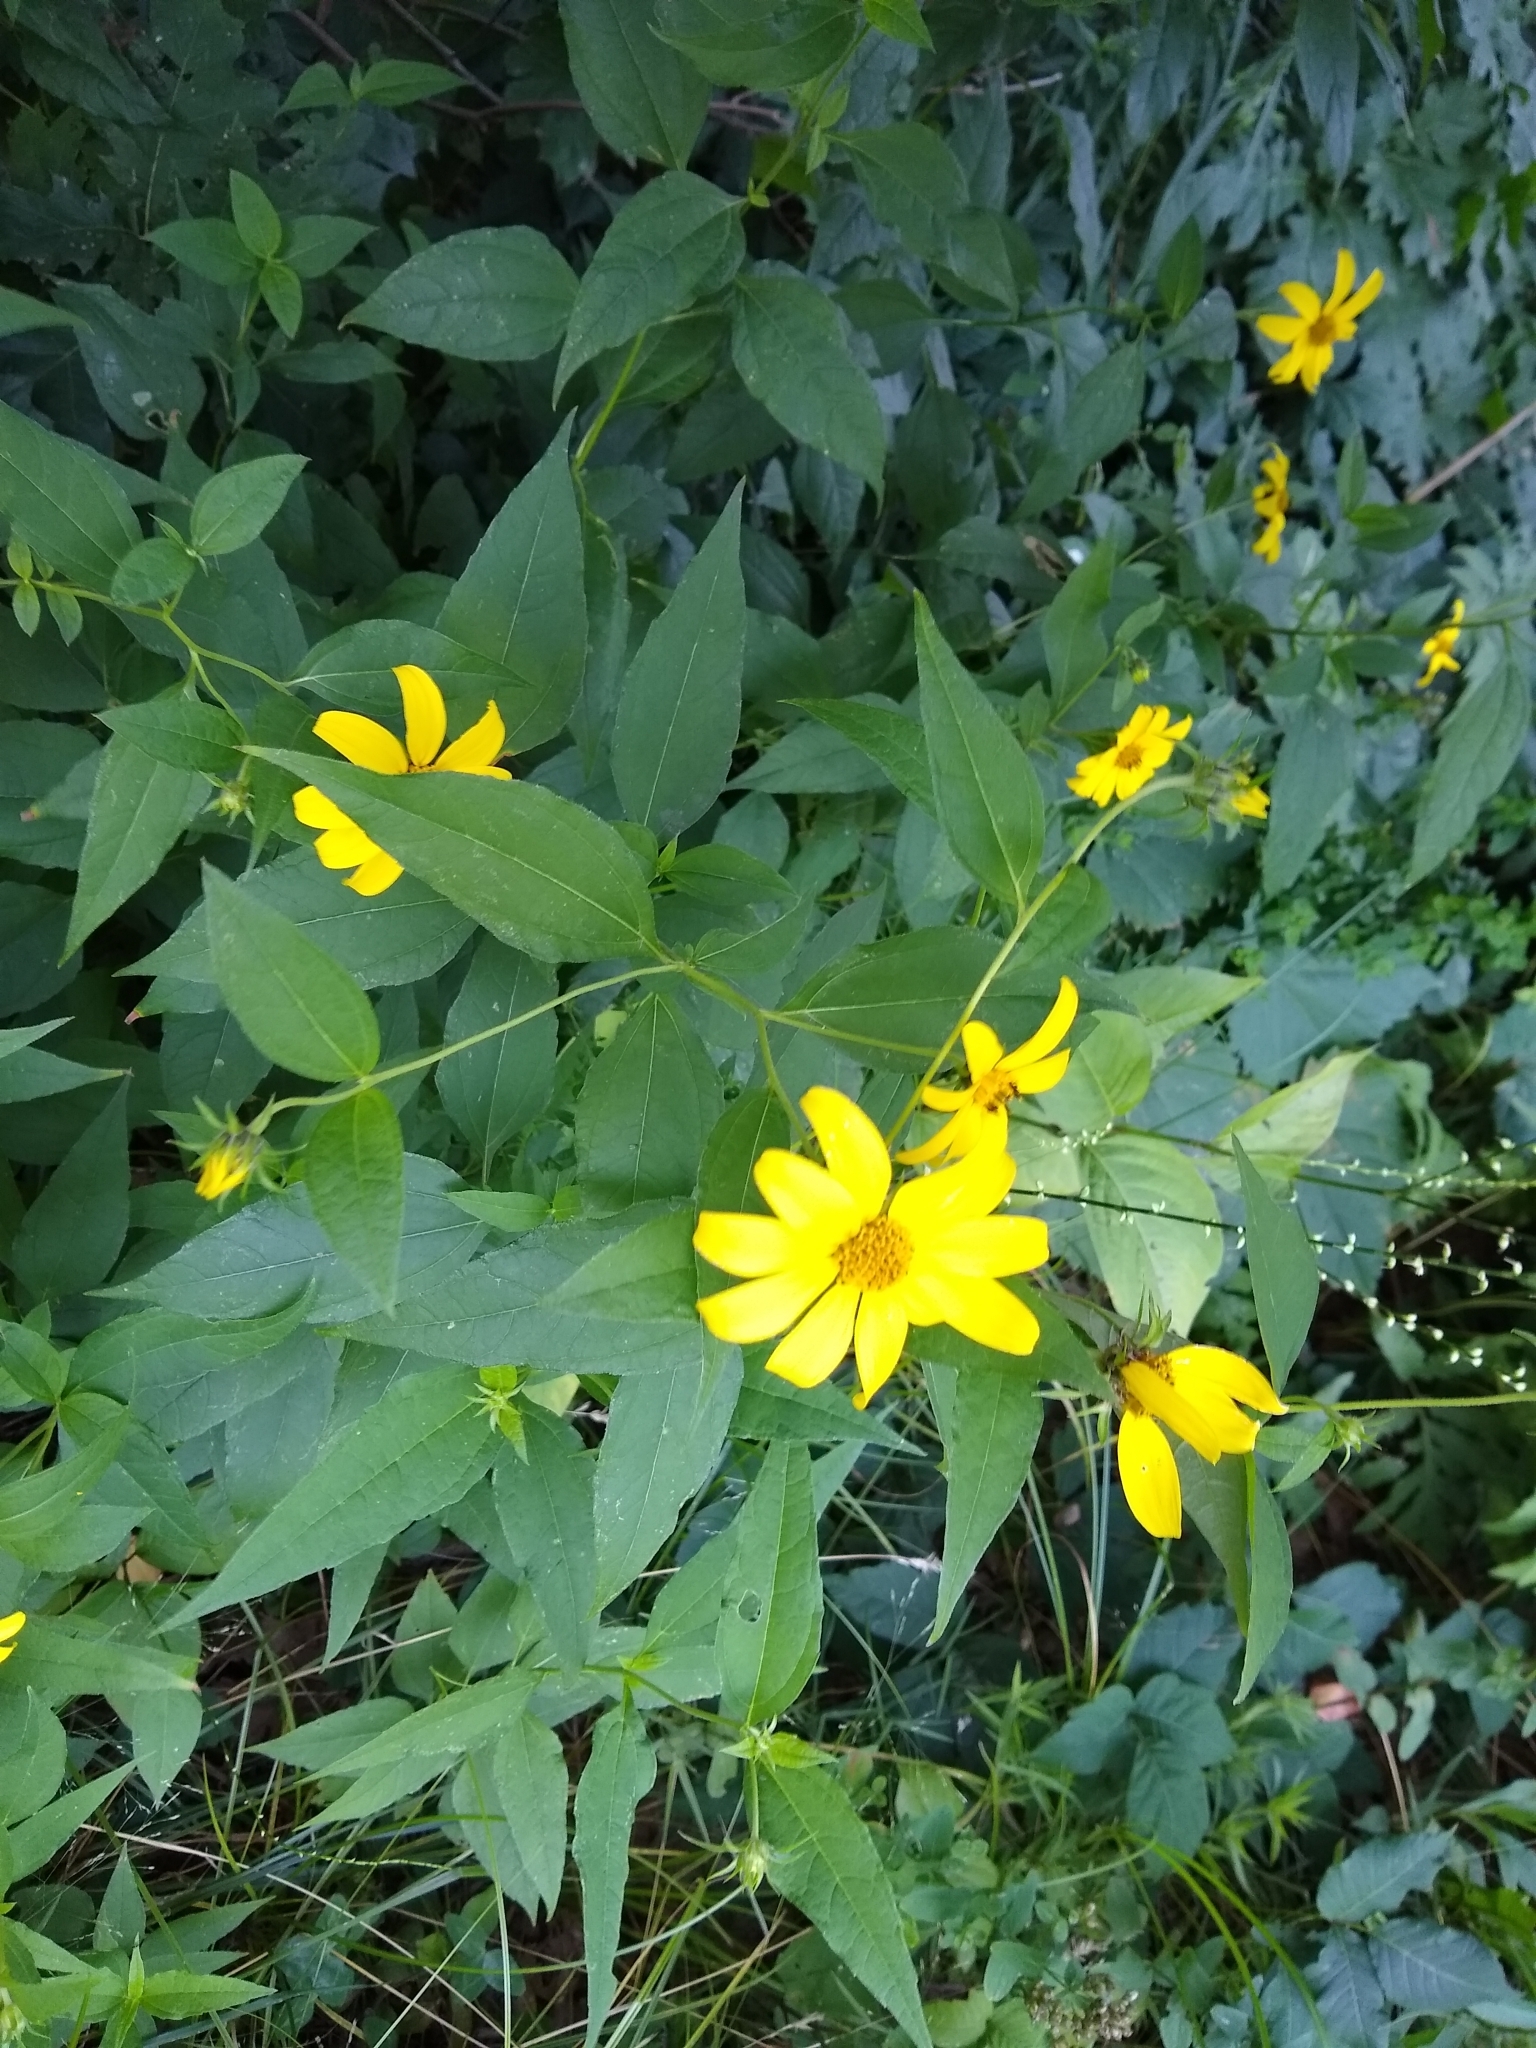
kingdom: Plantae
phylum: Tracheophyta
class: Magnoliopsida
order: Asterales
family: Asteraceae
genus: Helianthus
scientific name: Helianthus decapetalus
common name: Thin-leaved sunflower
